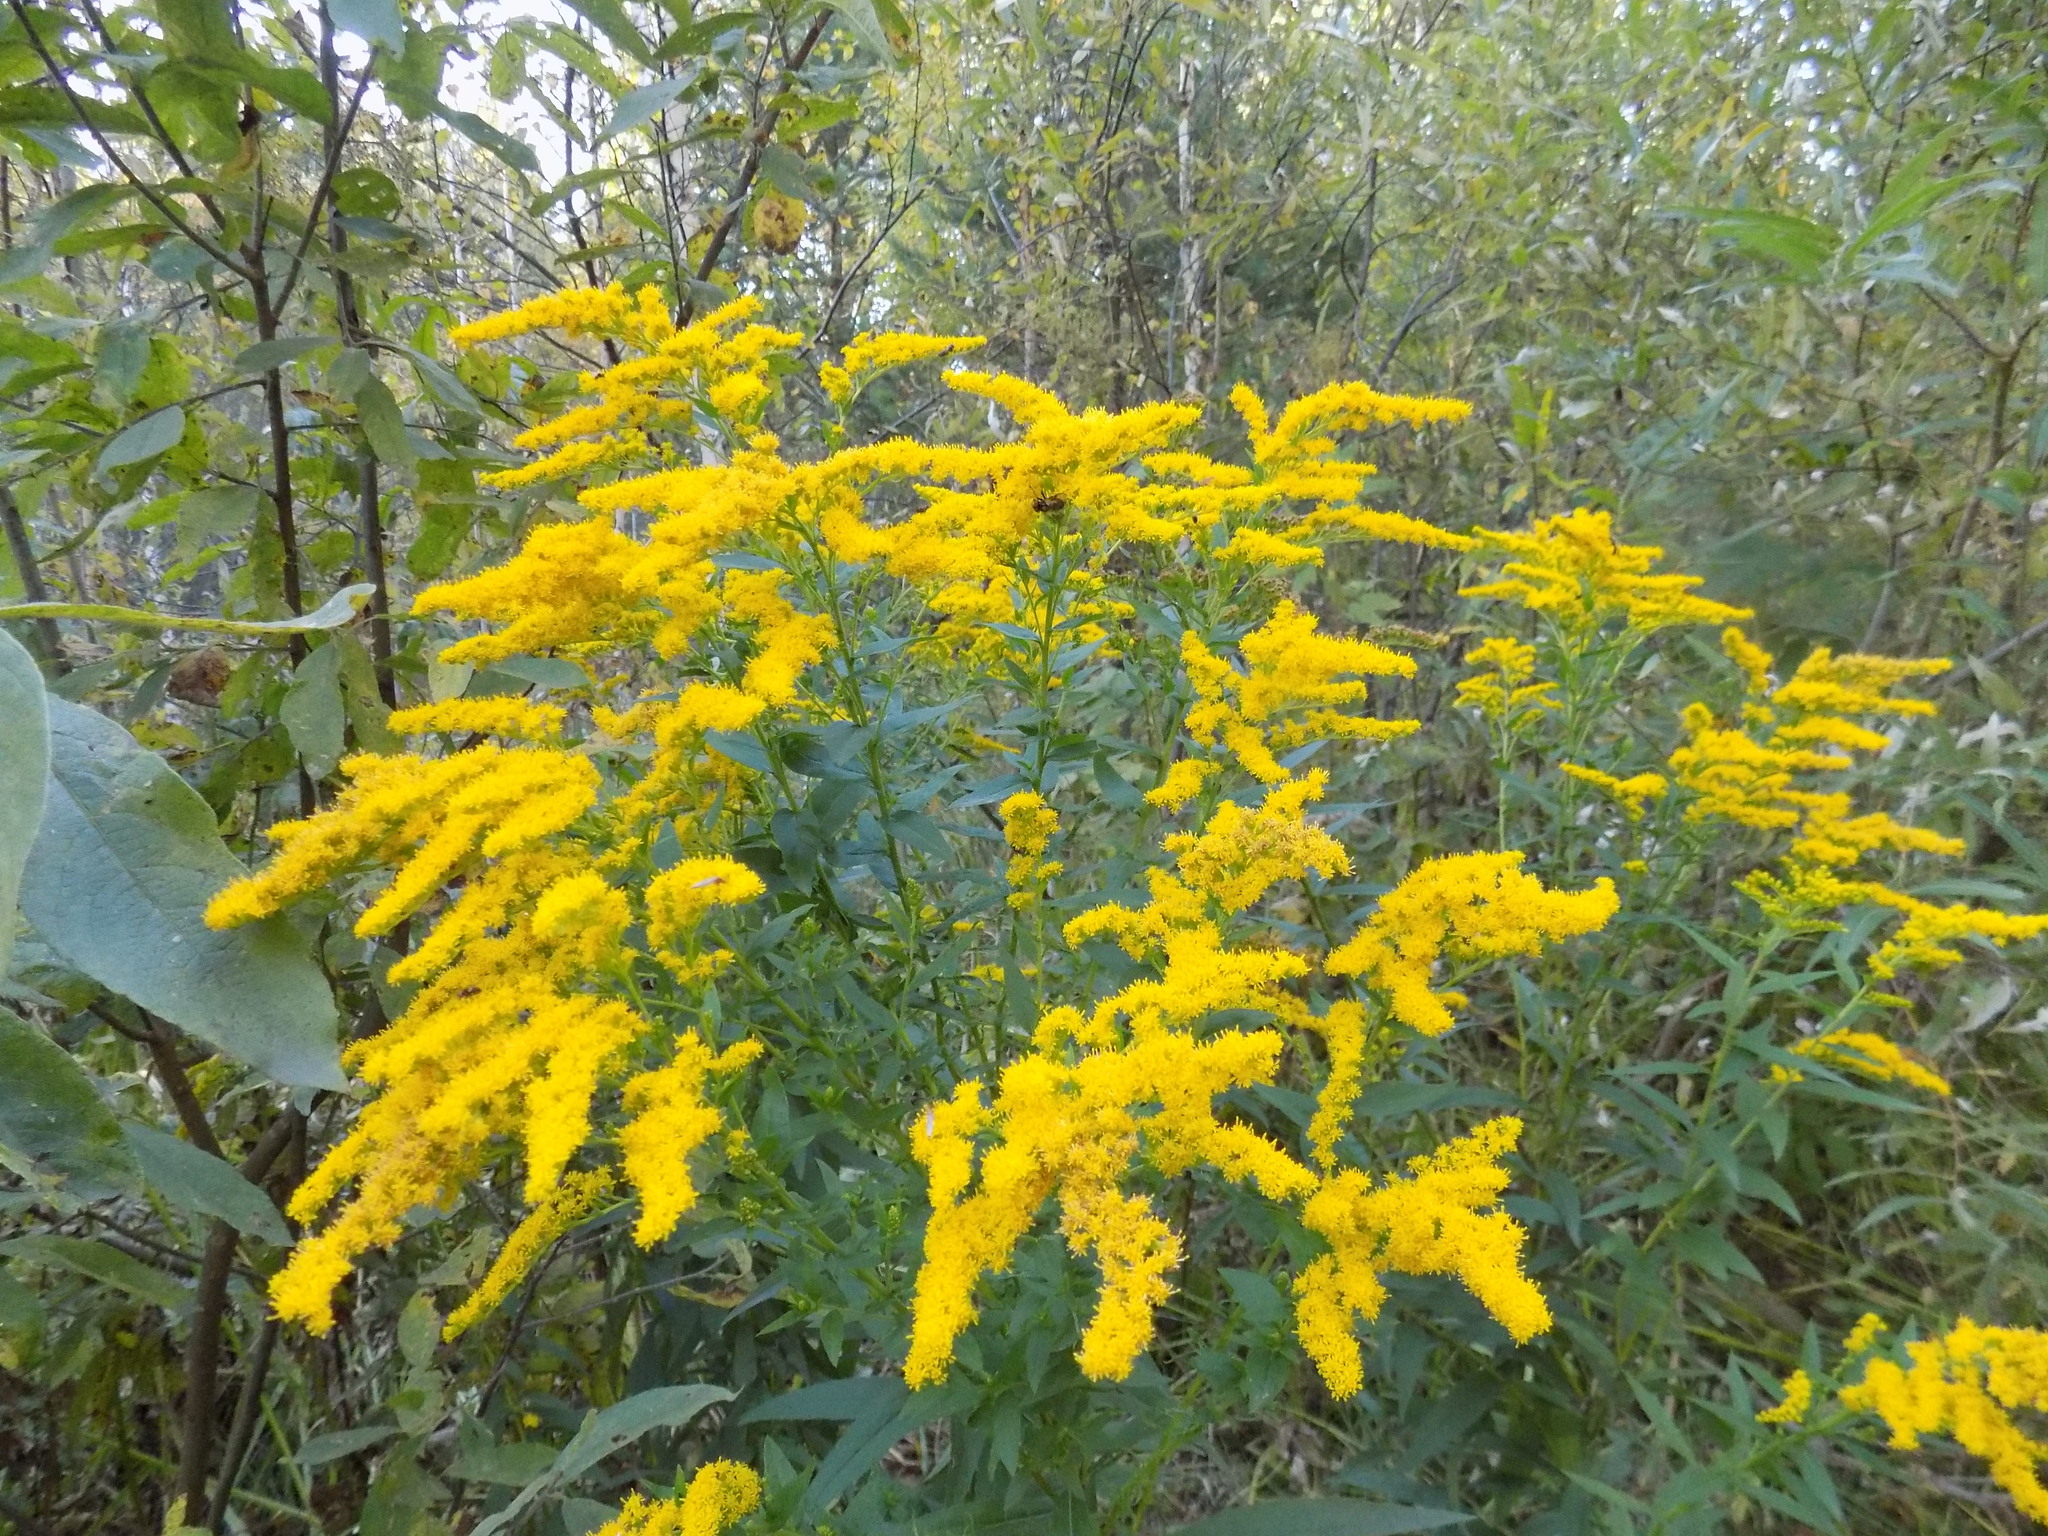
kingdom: Plantae
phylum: Tracheophyta
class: Magnoliopsida
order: Asterales
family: Asteraceae
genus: Solidago
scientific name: Solidago canadensis
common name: Canada goldenrod
